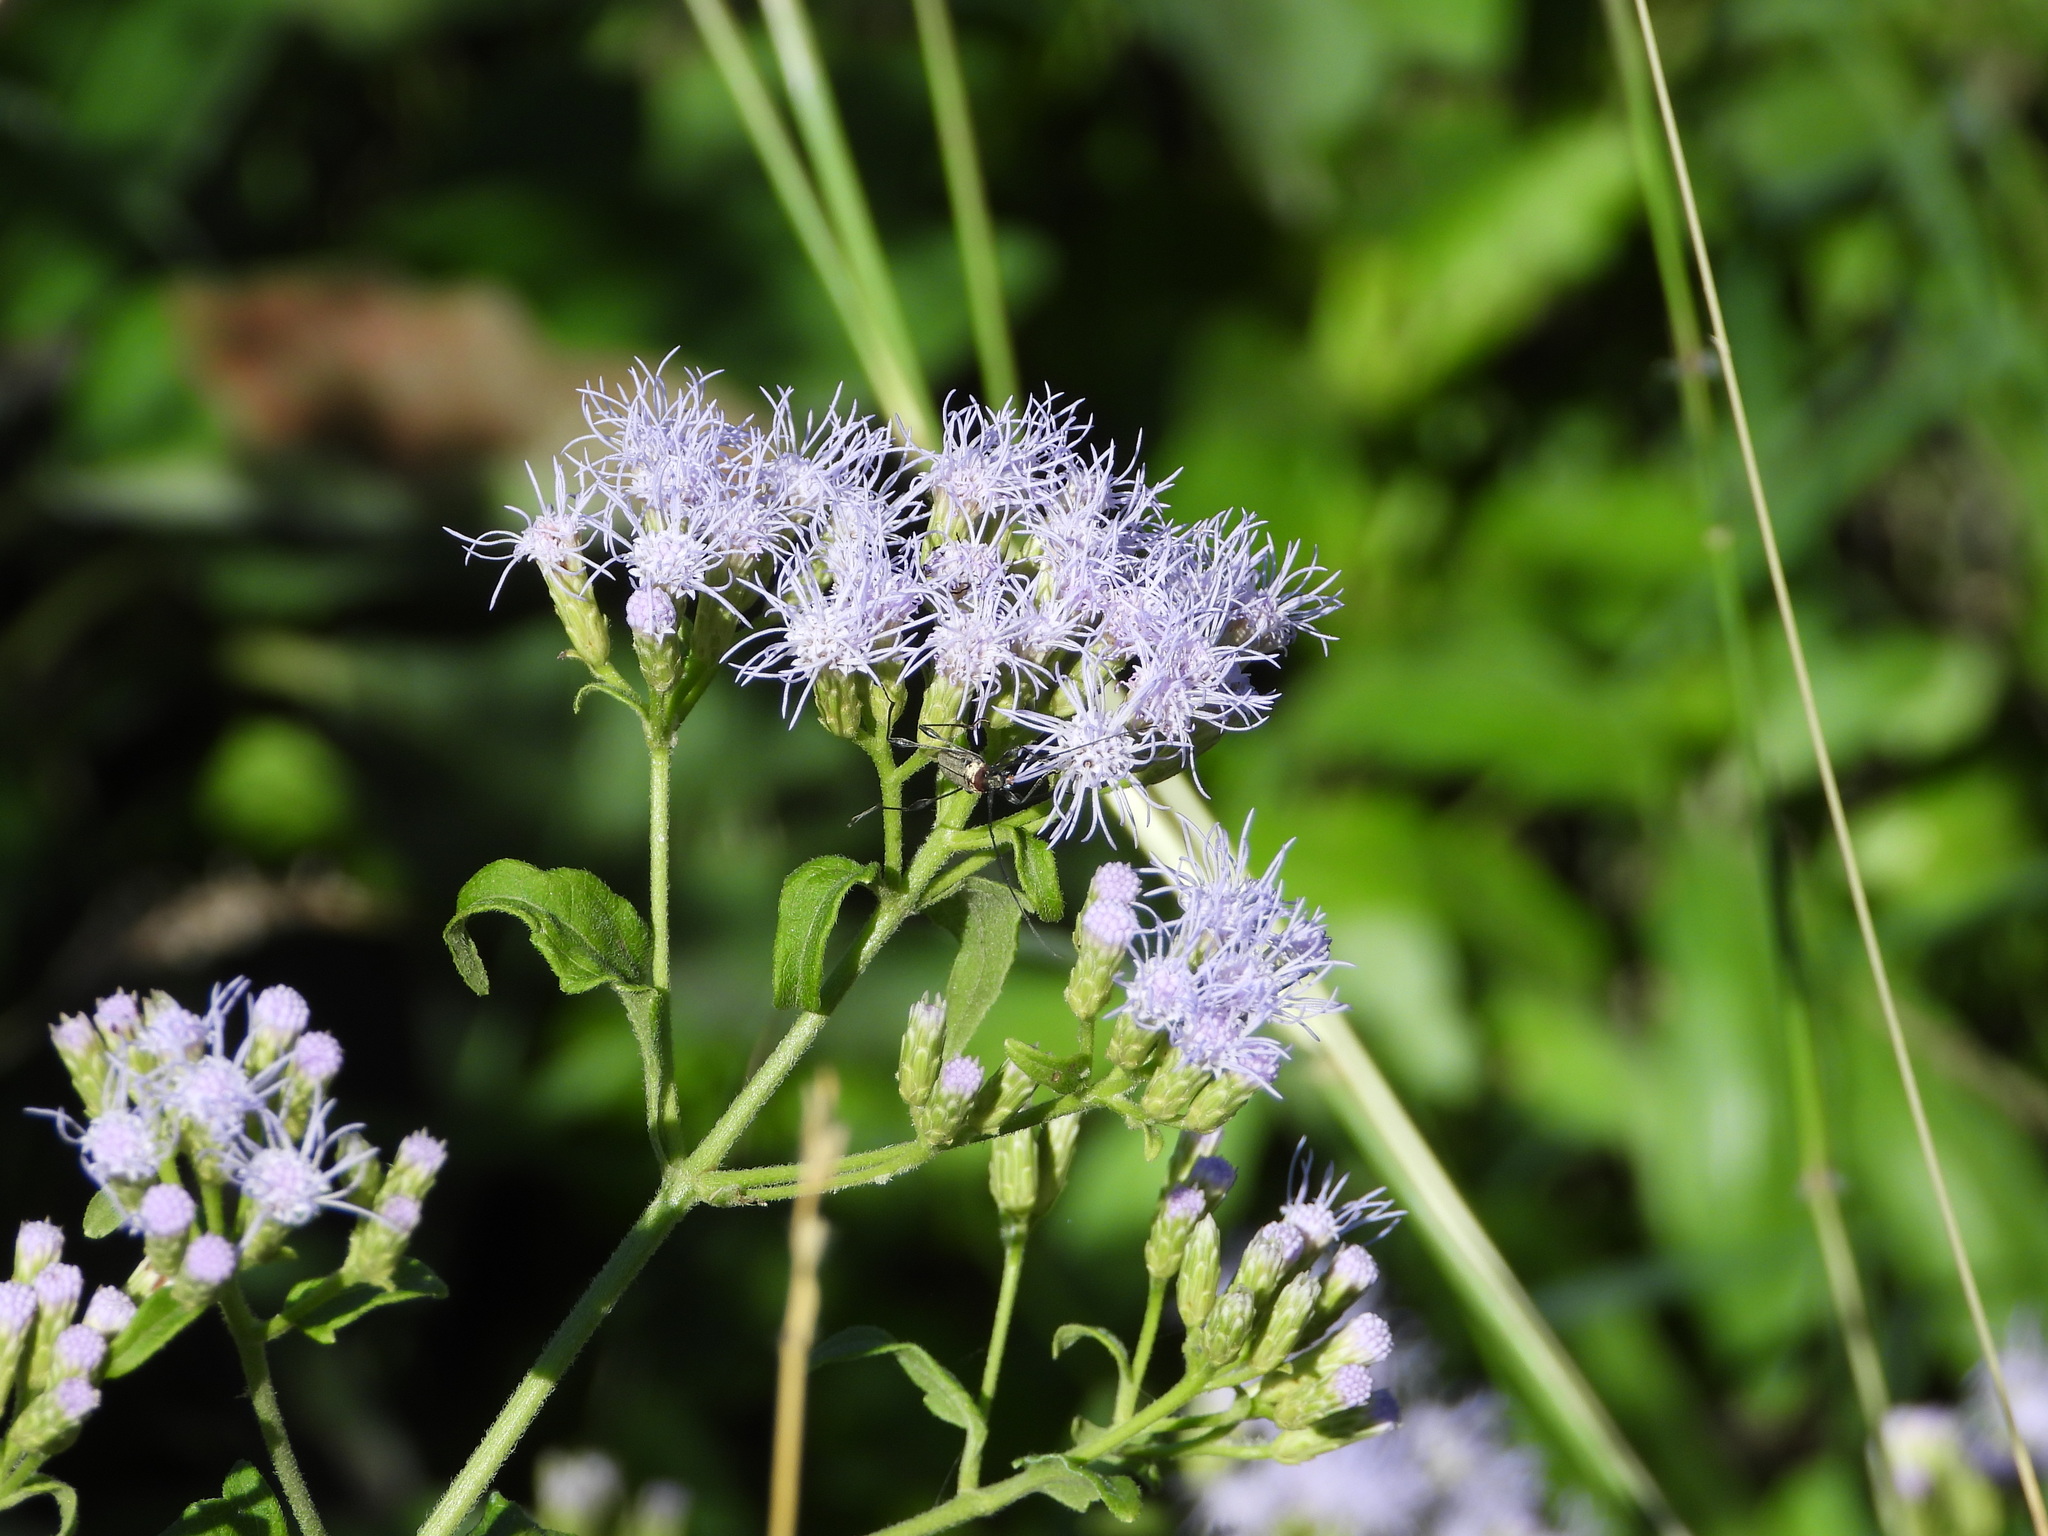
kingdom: Animalia
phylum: Arthropoda
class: Insecta
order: Coleoptera
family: Cerambycidae
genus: Rhopalophora
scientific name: Rhopalophora cupricollis
